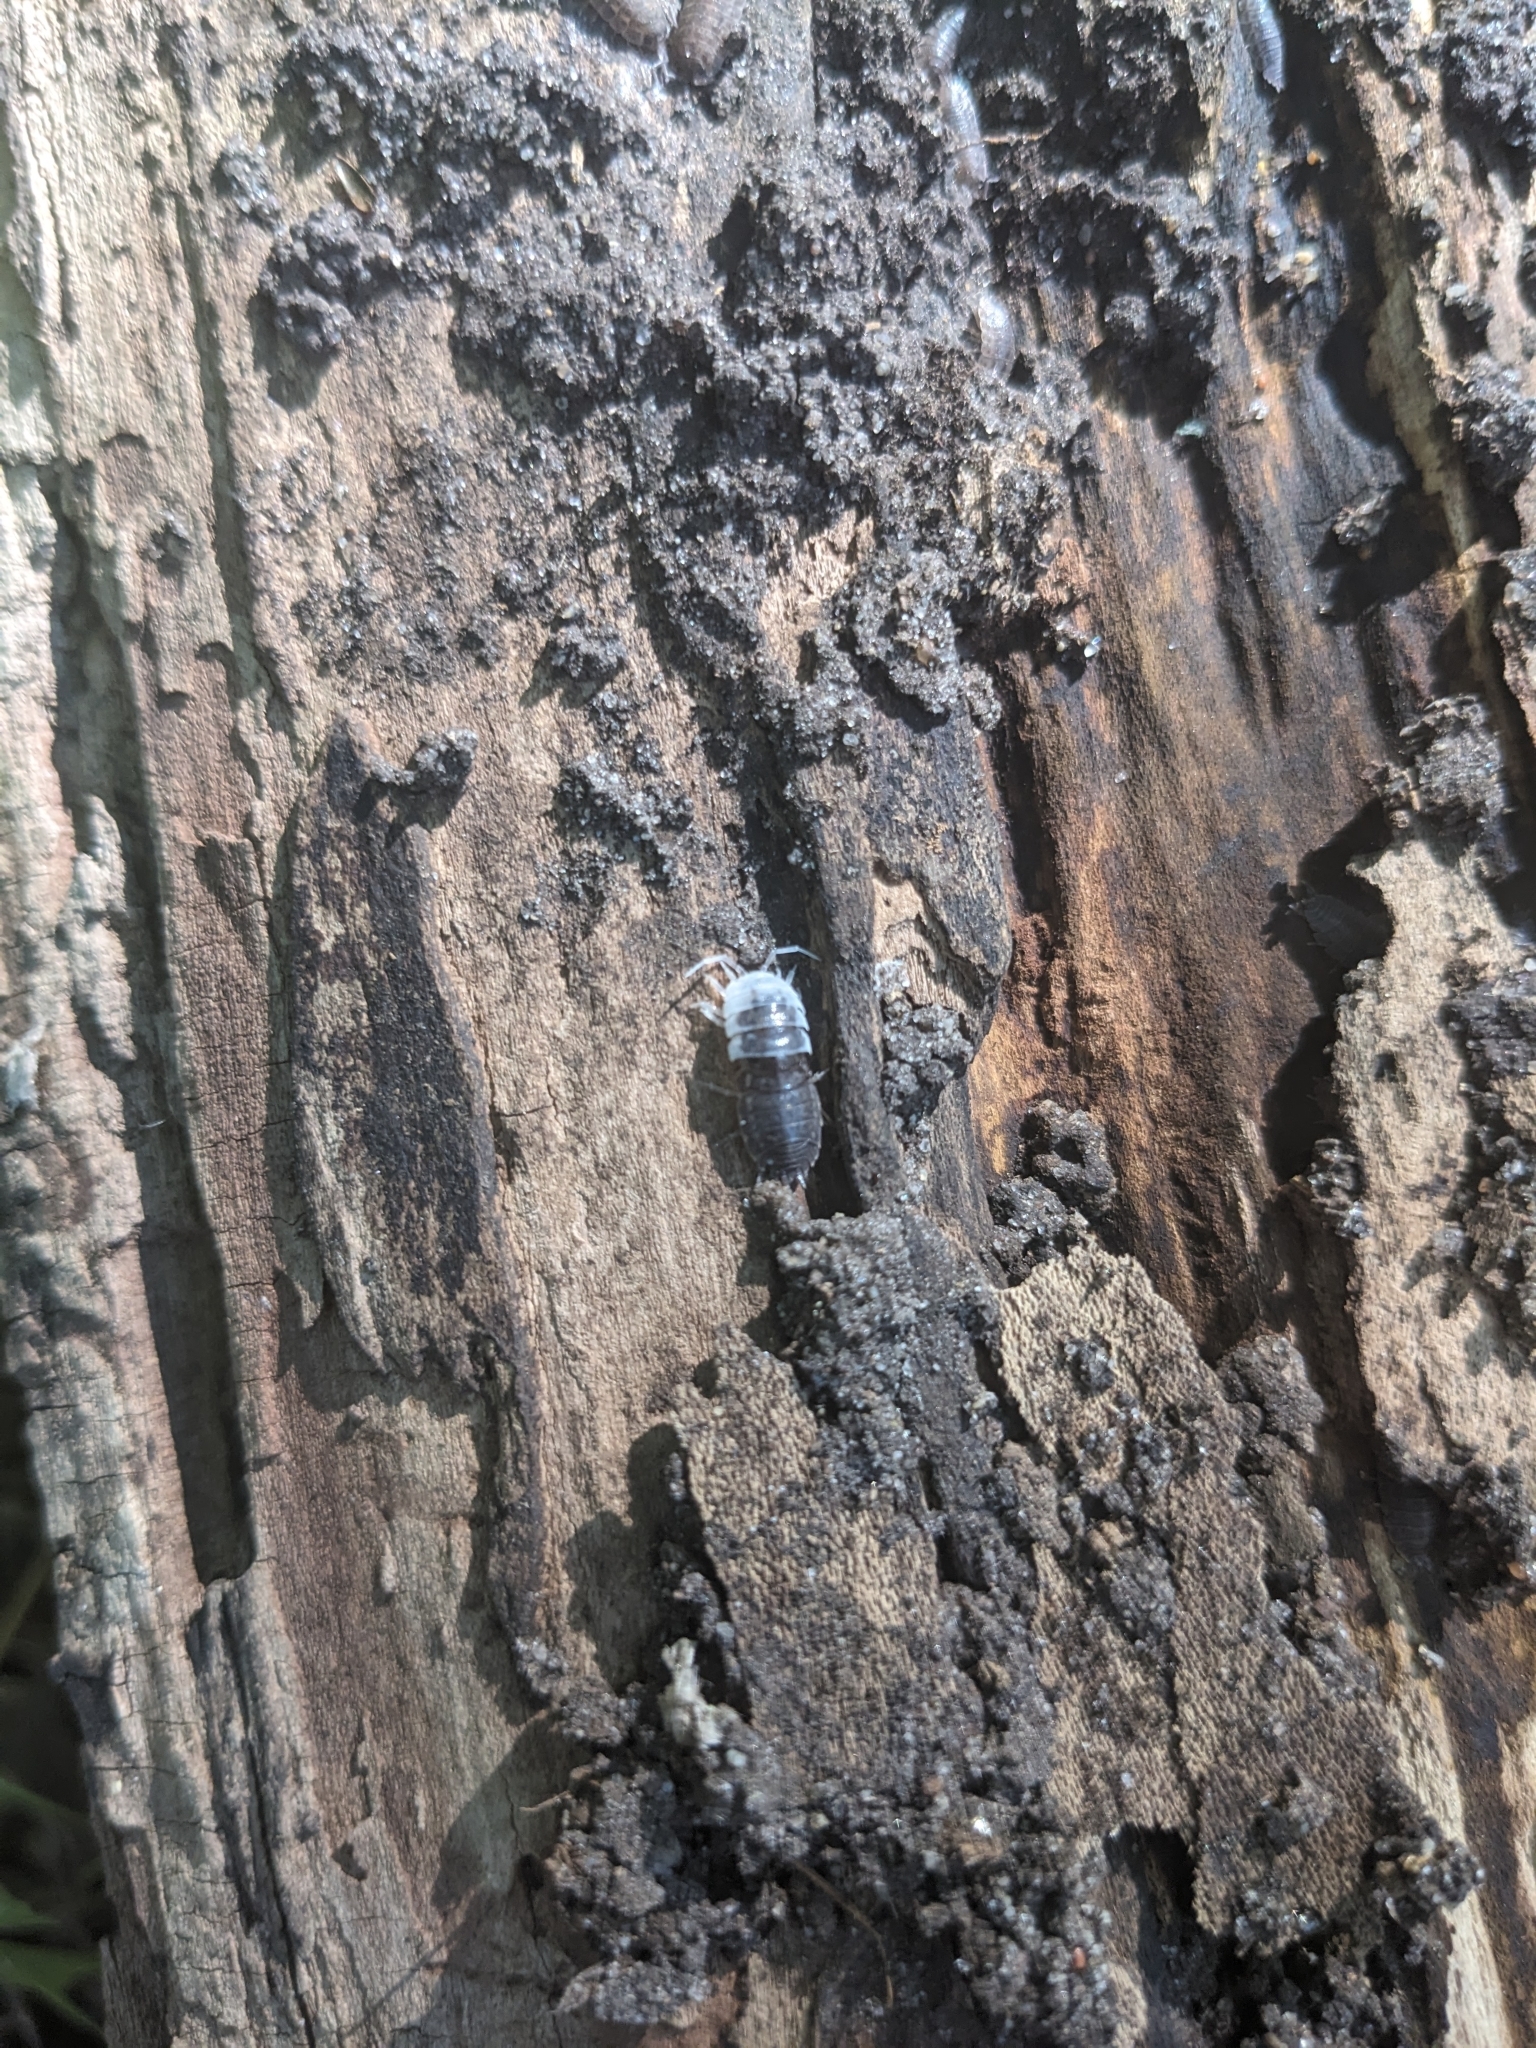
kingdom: Animalia
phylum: Arthropoda
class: Malacostraca
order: Isopoda
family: Trachelipodidae
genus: Trachelipus
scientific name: Trachelipus rathkii
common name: Isopod
